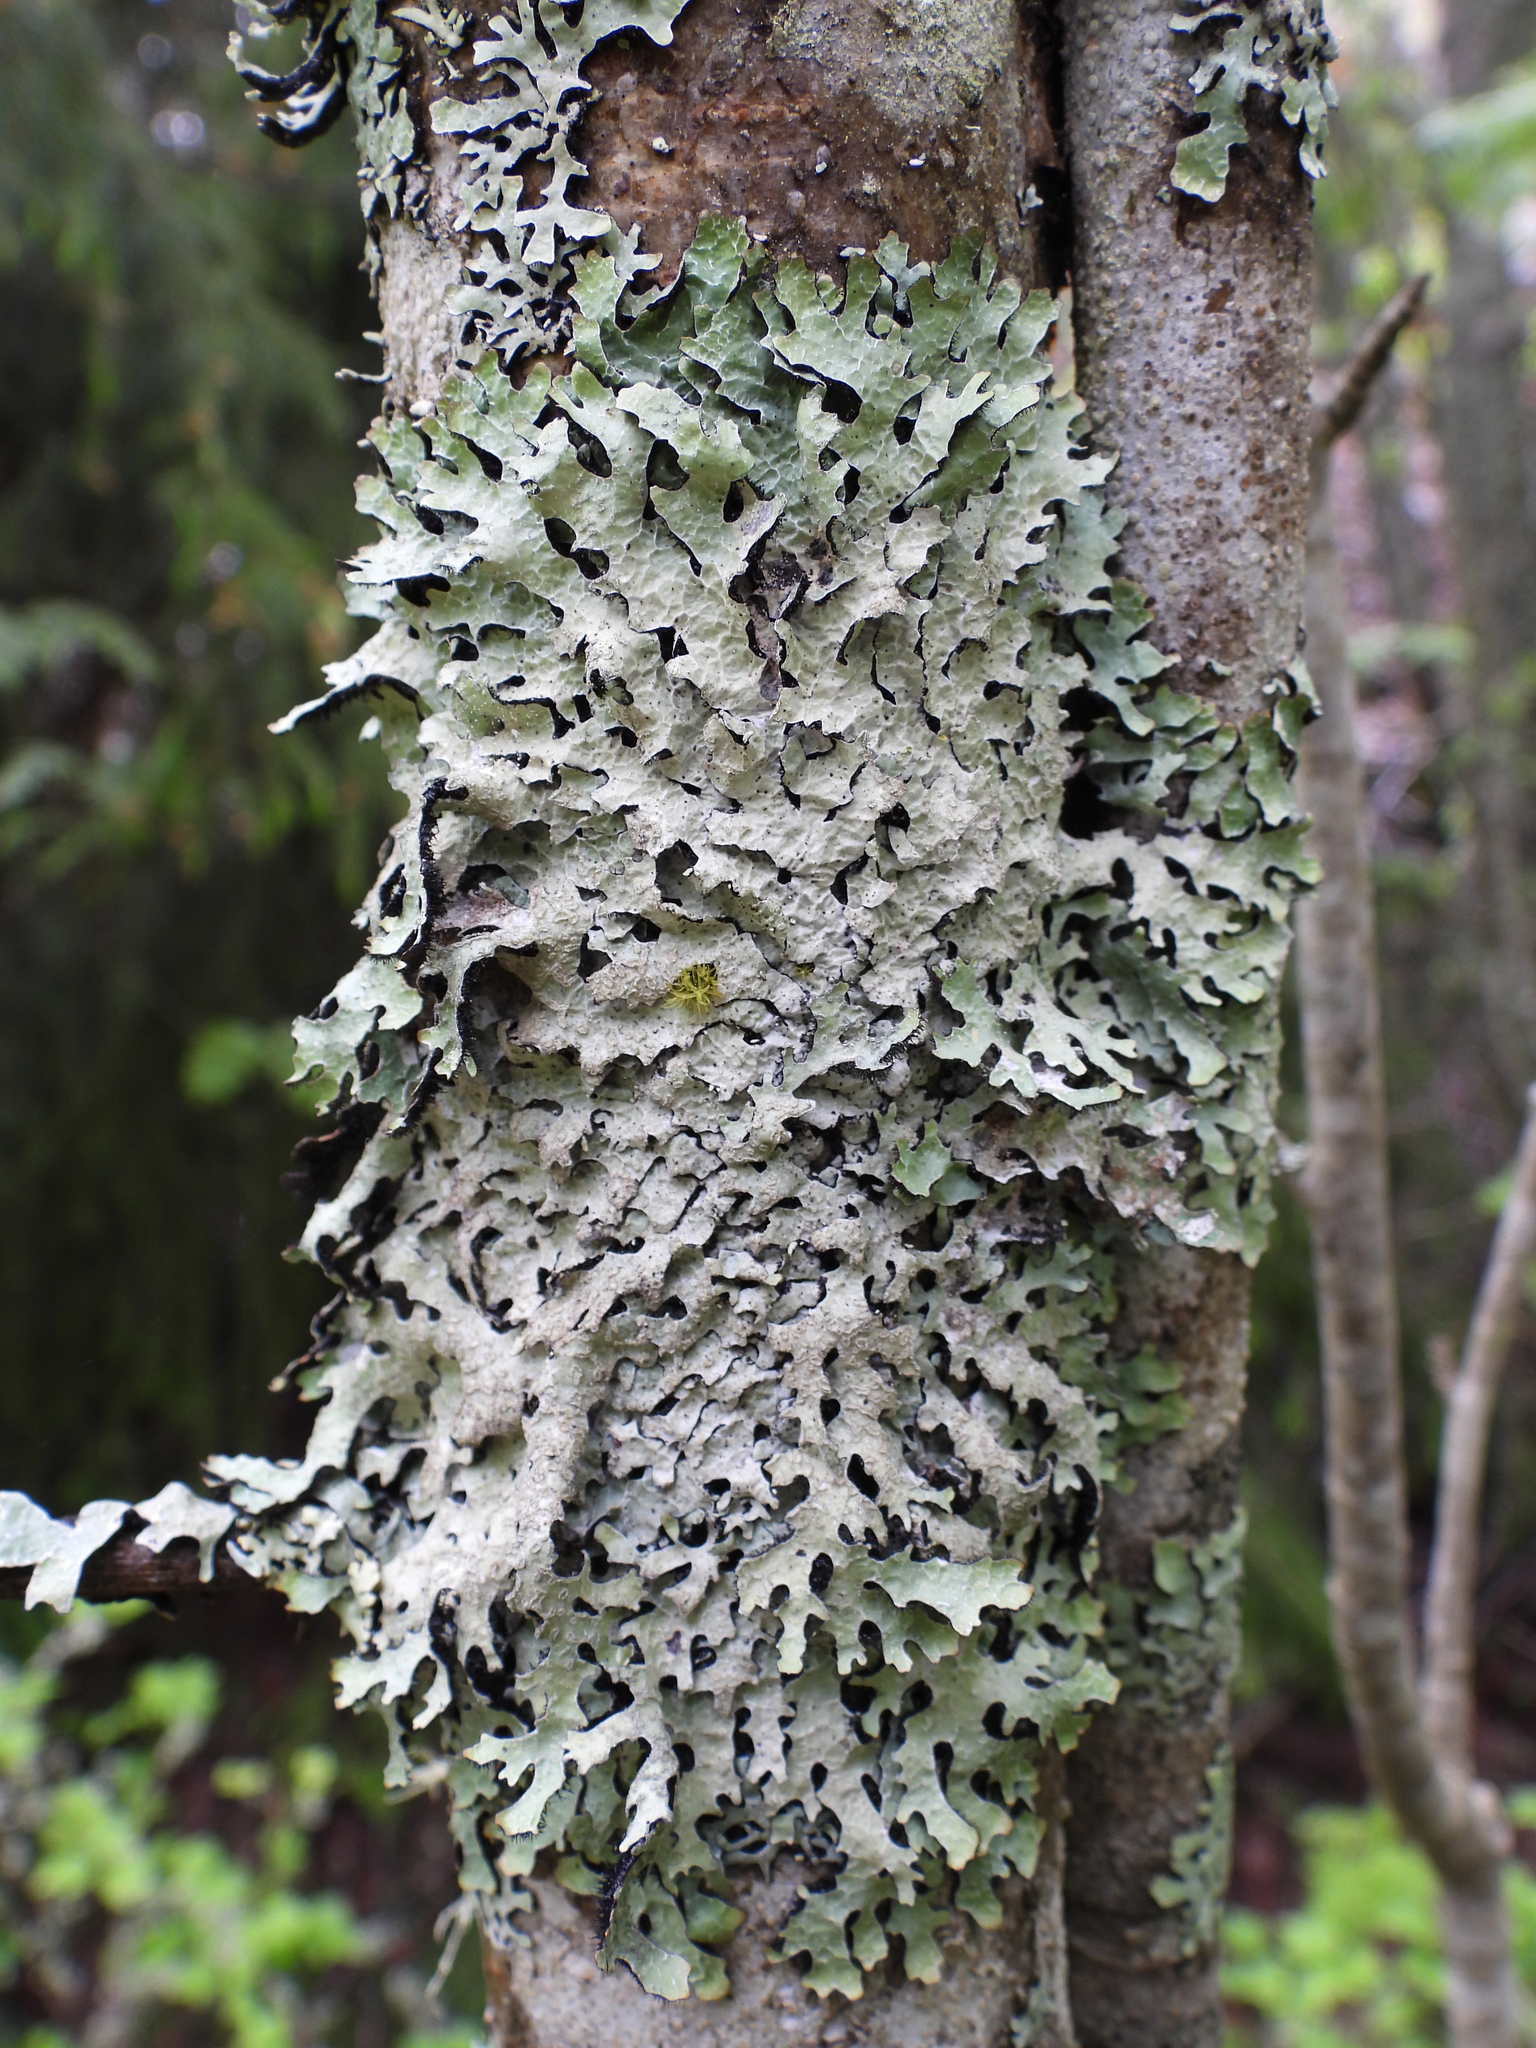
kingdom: Fungi
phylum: Ascomycota
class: Lecanoromycetes
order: Lecanorales
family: Parmeliaceae
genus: Parmelia
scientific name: Parmelia sulcata
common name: Netted shield lichen
